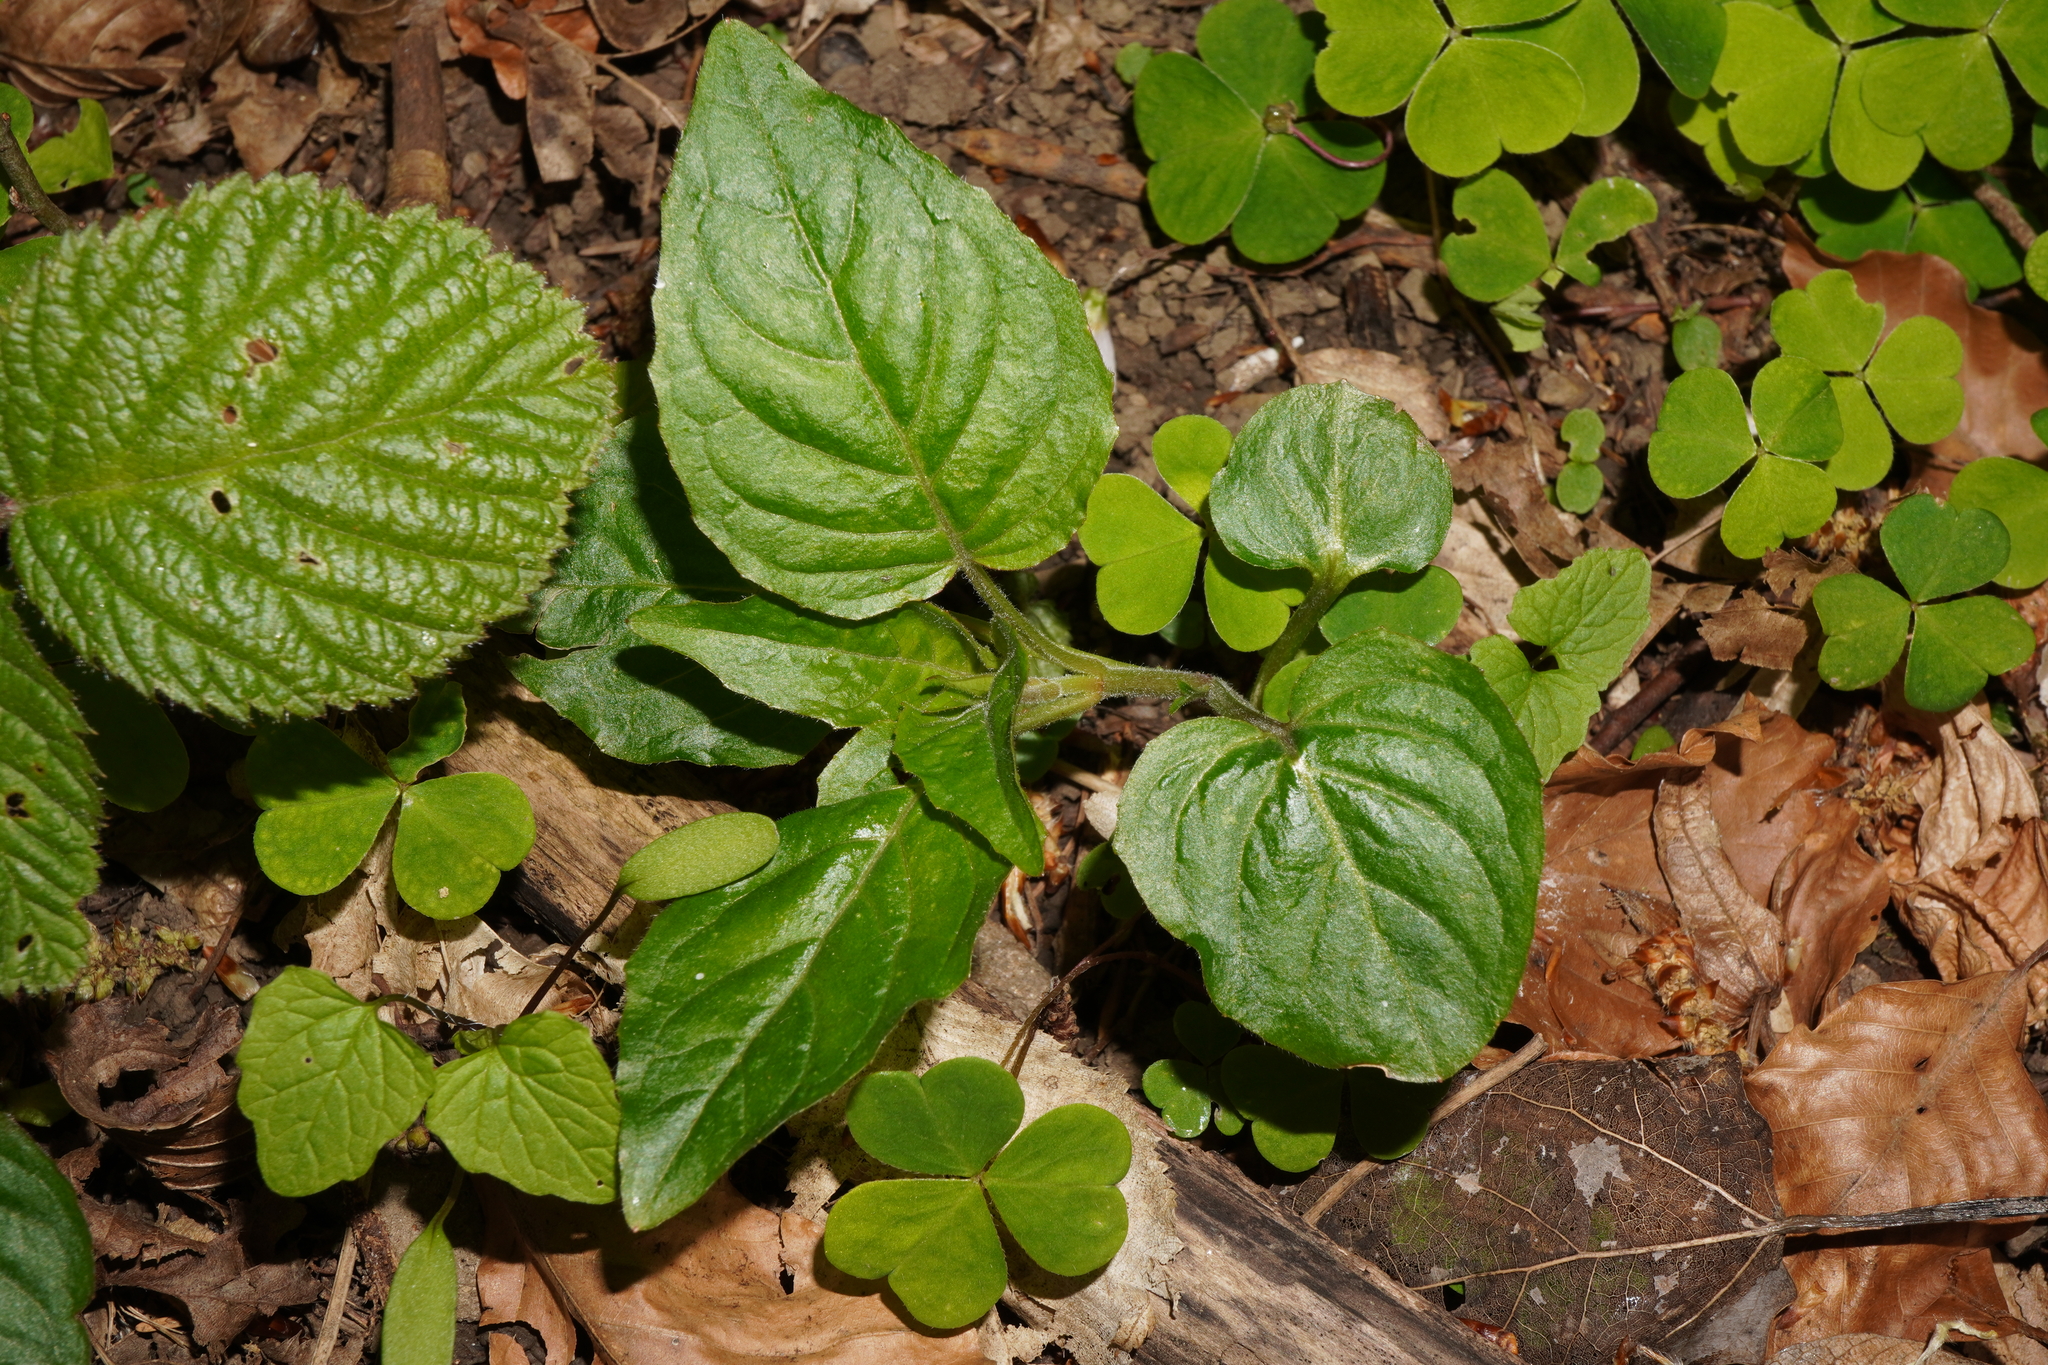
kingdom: Plantae
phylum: Tracheophyta
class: Magnoliopsida
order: Myrtales
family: Onagraceae
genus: Circaea
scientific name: Circaea lutetiana
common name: Enchanter's-nightshade
